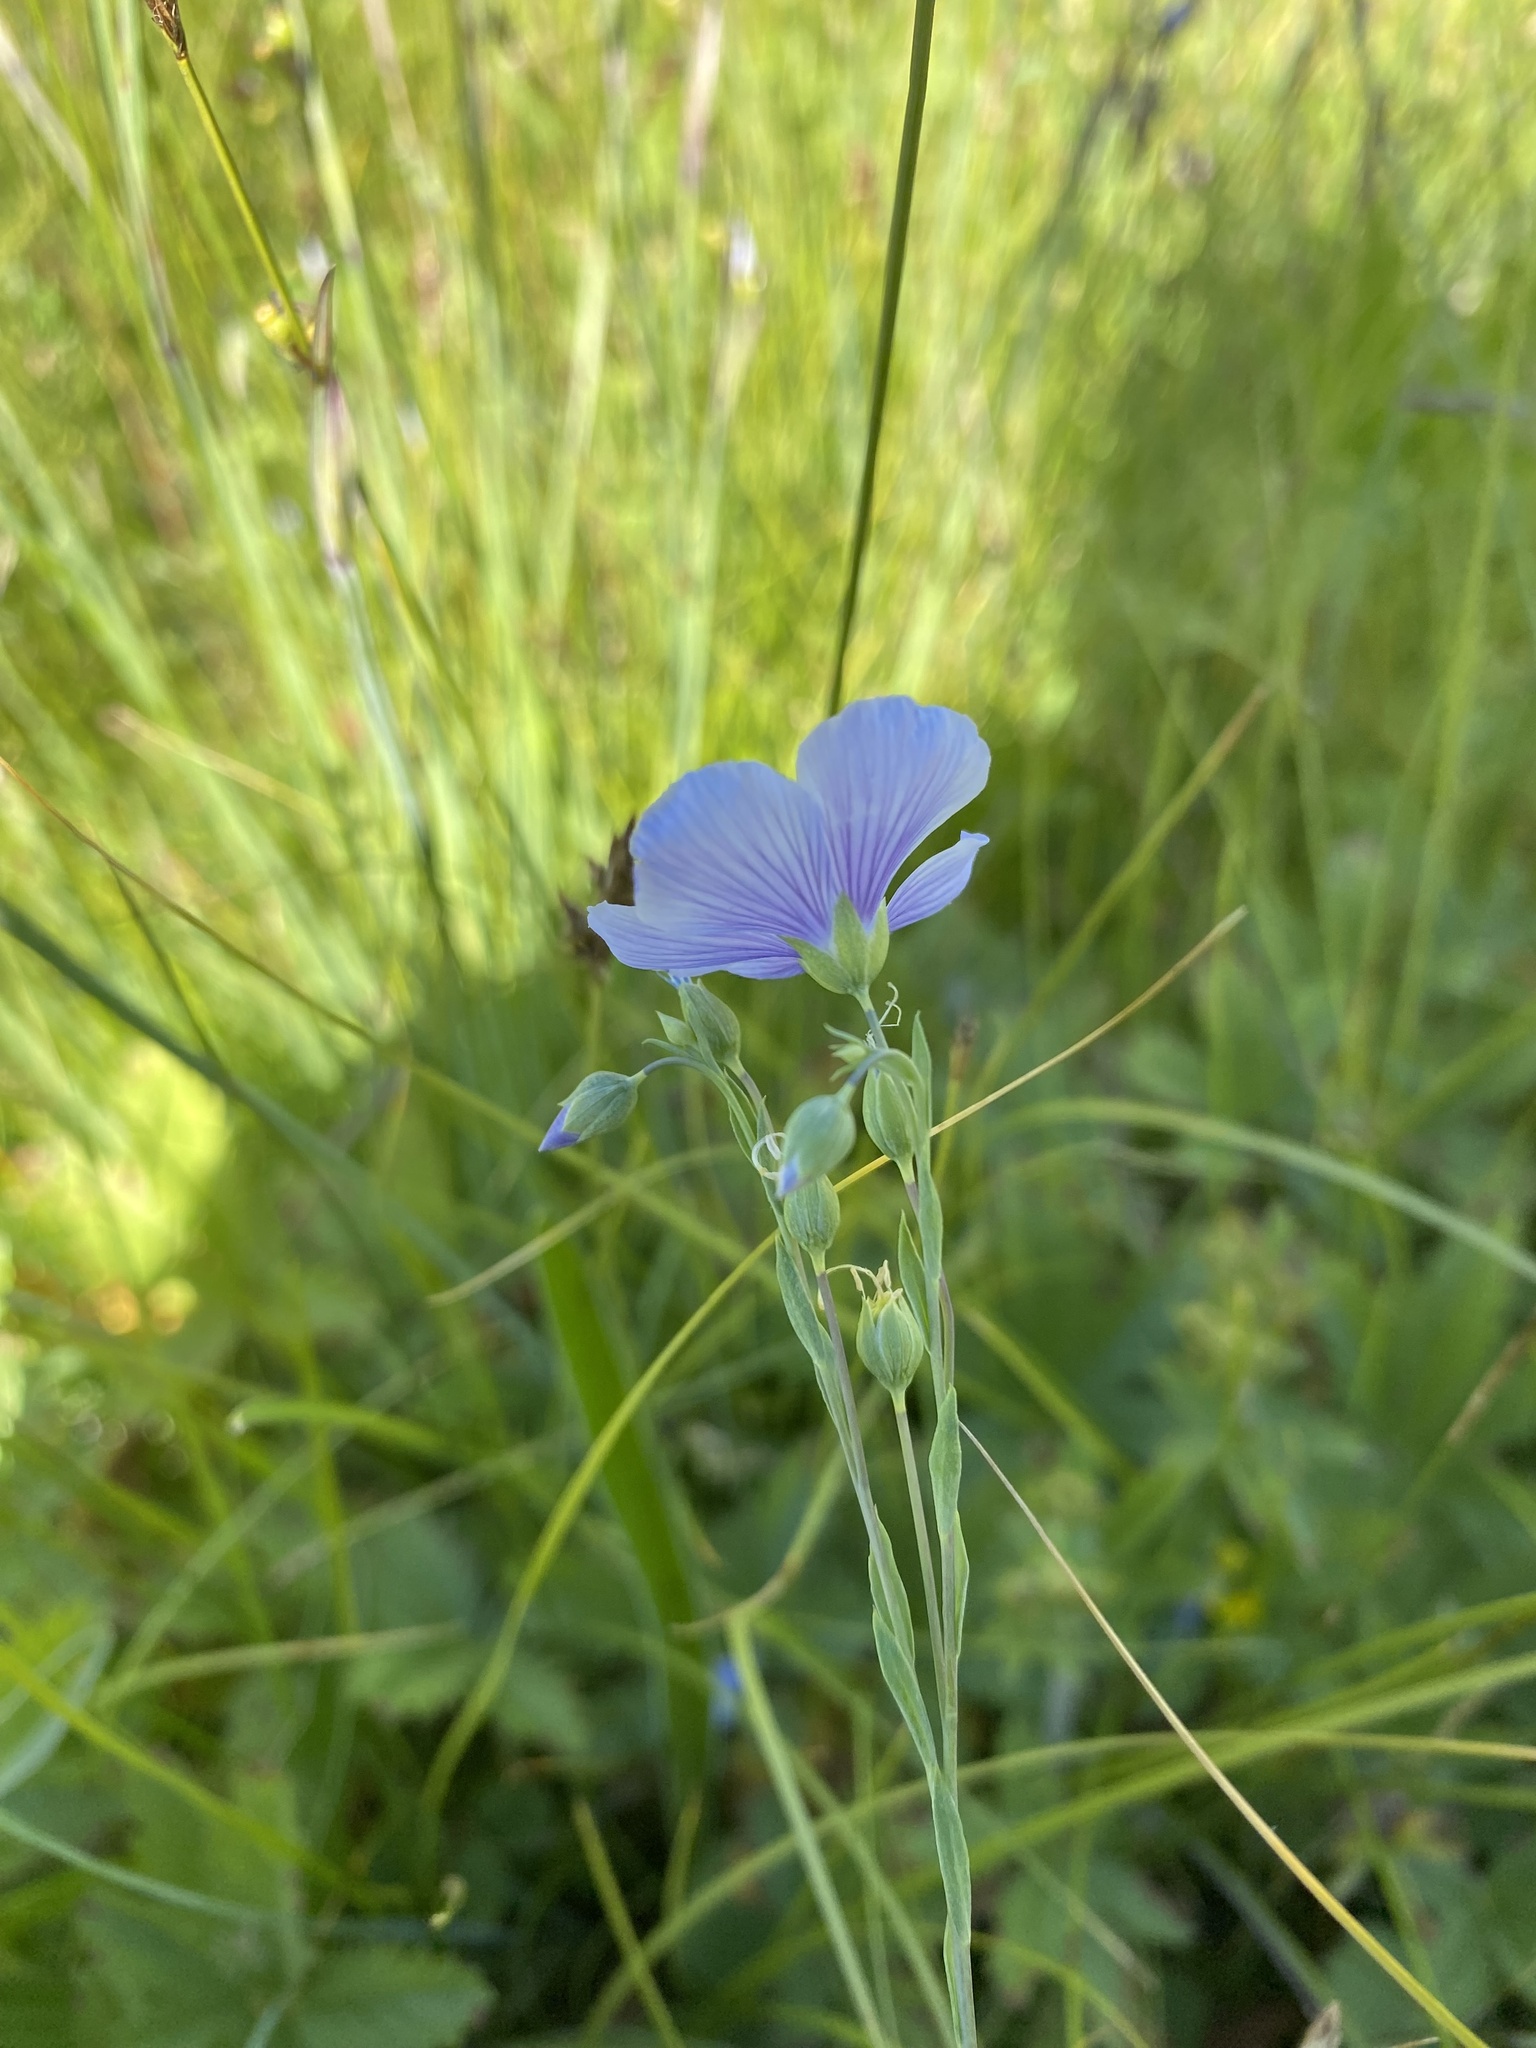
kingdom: Plantae
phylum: Tracheophyta
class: Magnoliopsida
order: Malpighiales
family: Linaceae
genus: Linum
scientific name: Linum lewisii
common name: Prairie flax
